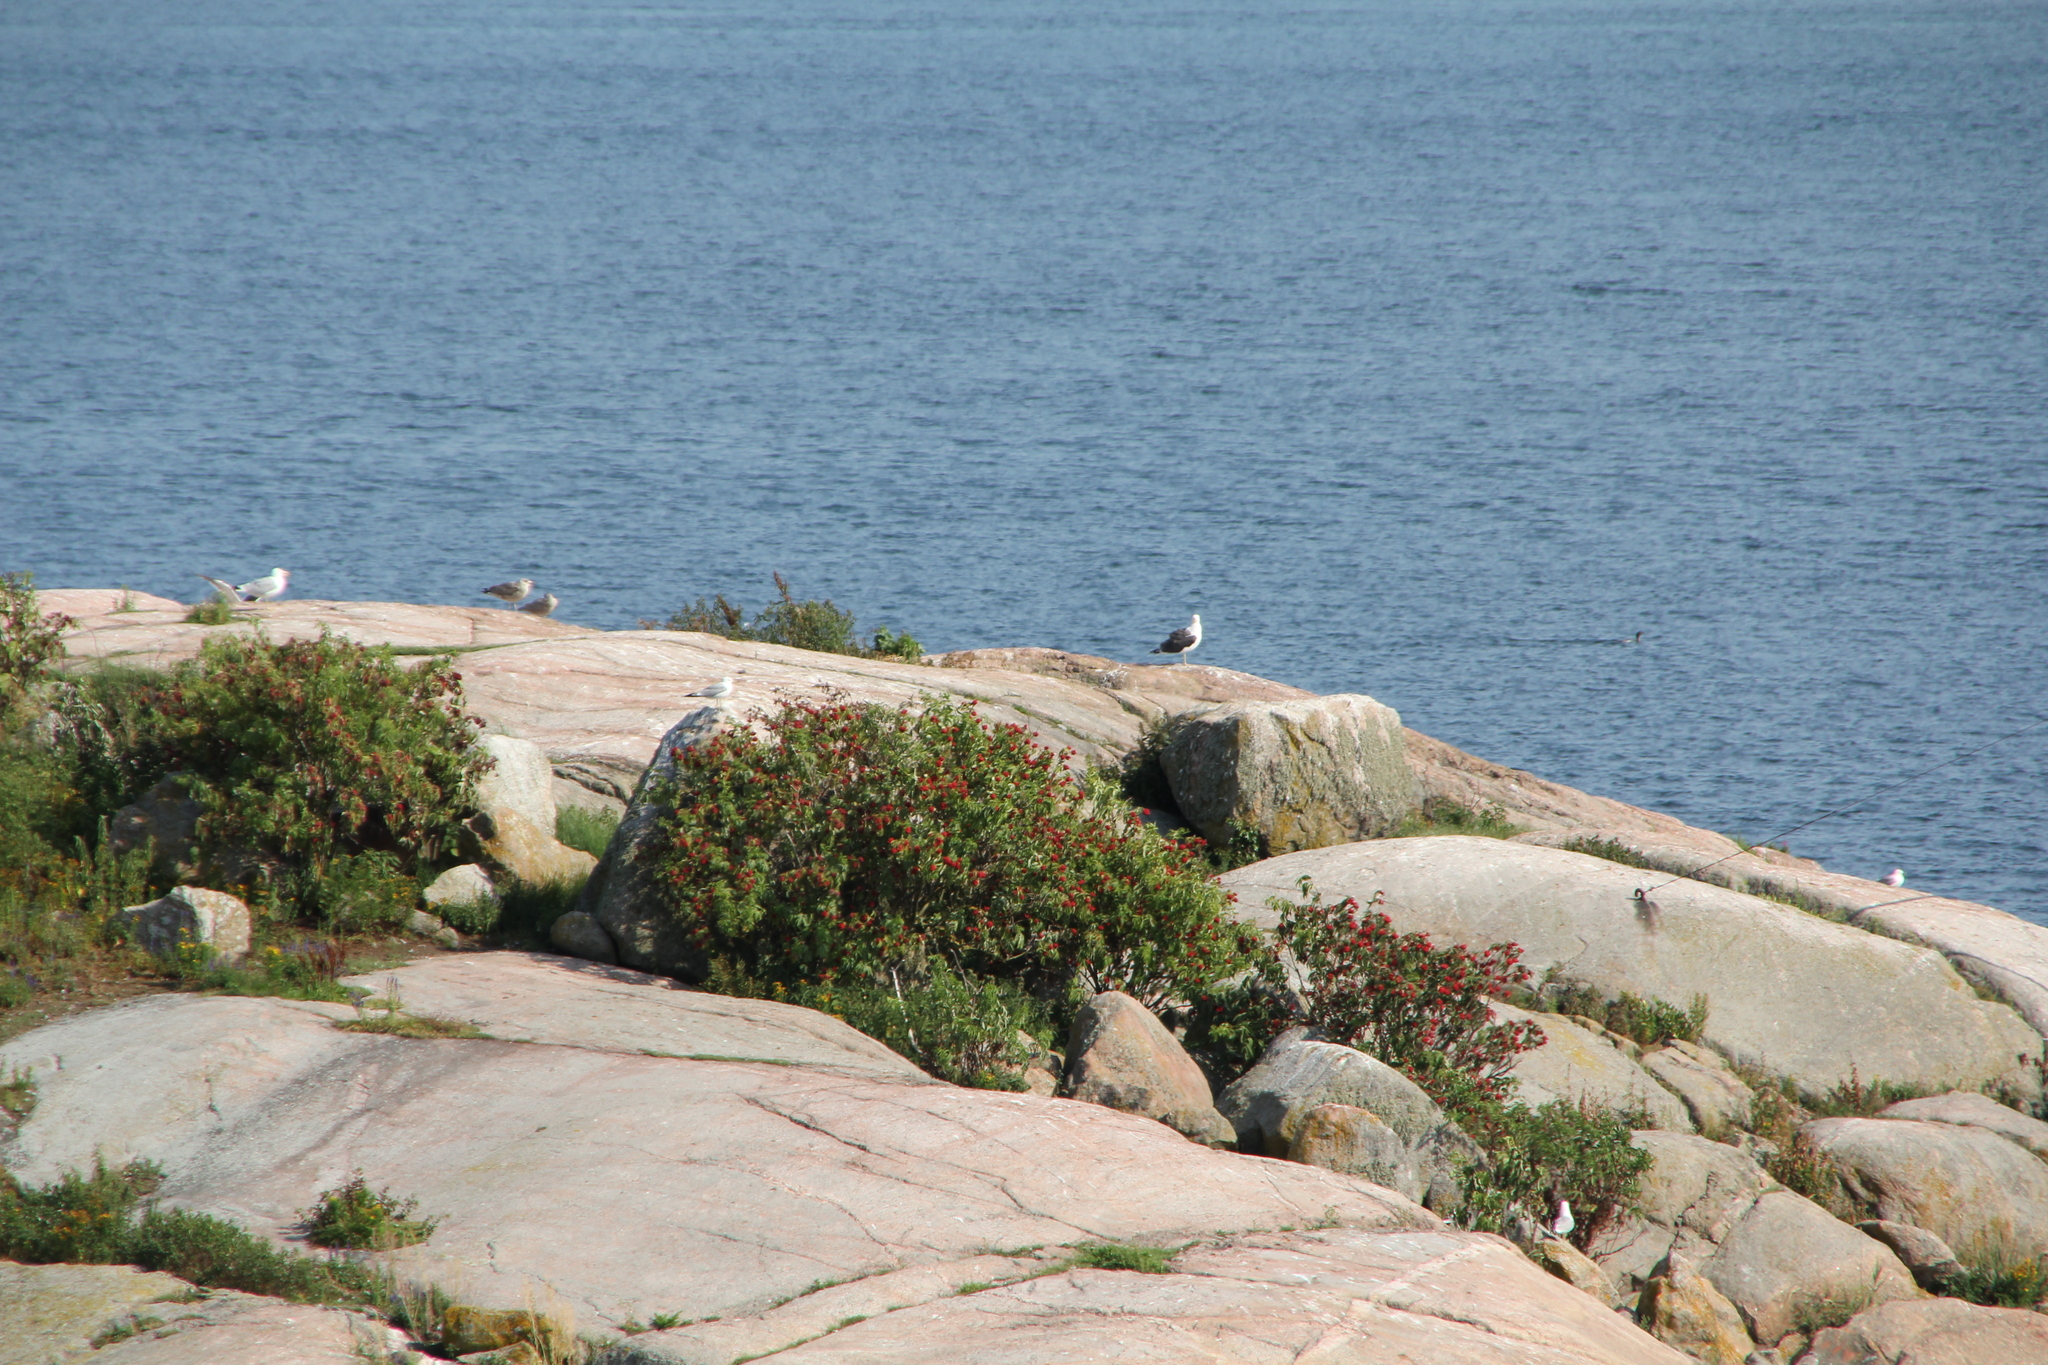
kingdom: Plantae
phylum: Tracheophyta
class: Magnoliopsida
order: Dipsacales
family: Viburnaceae
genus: Sambucus
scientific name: Sambucus racemosa
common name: Red-berried elder
